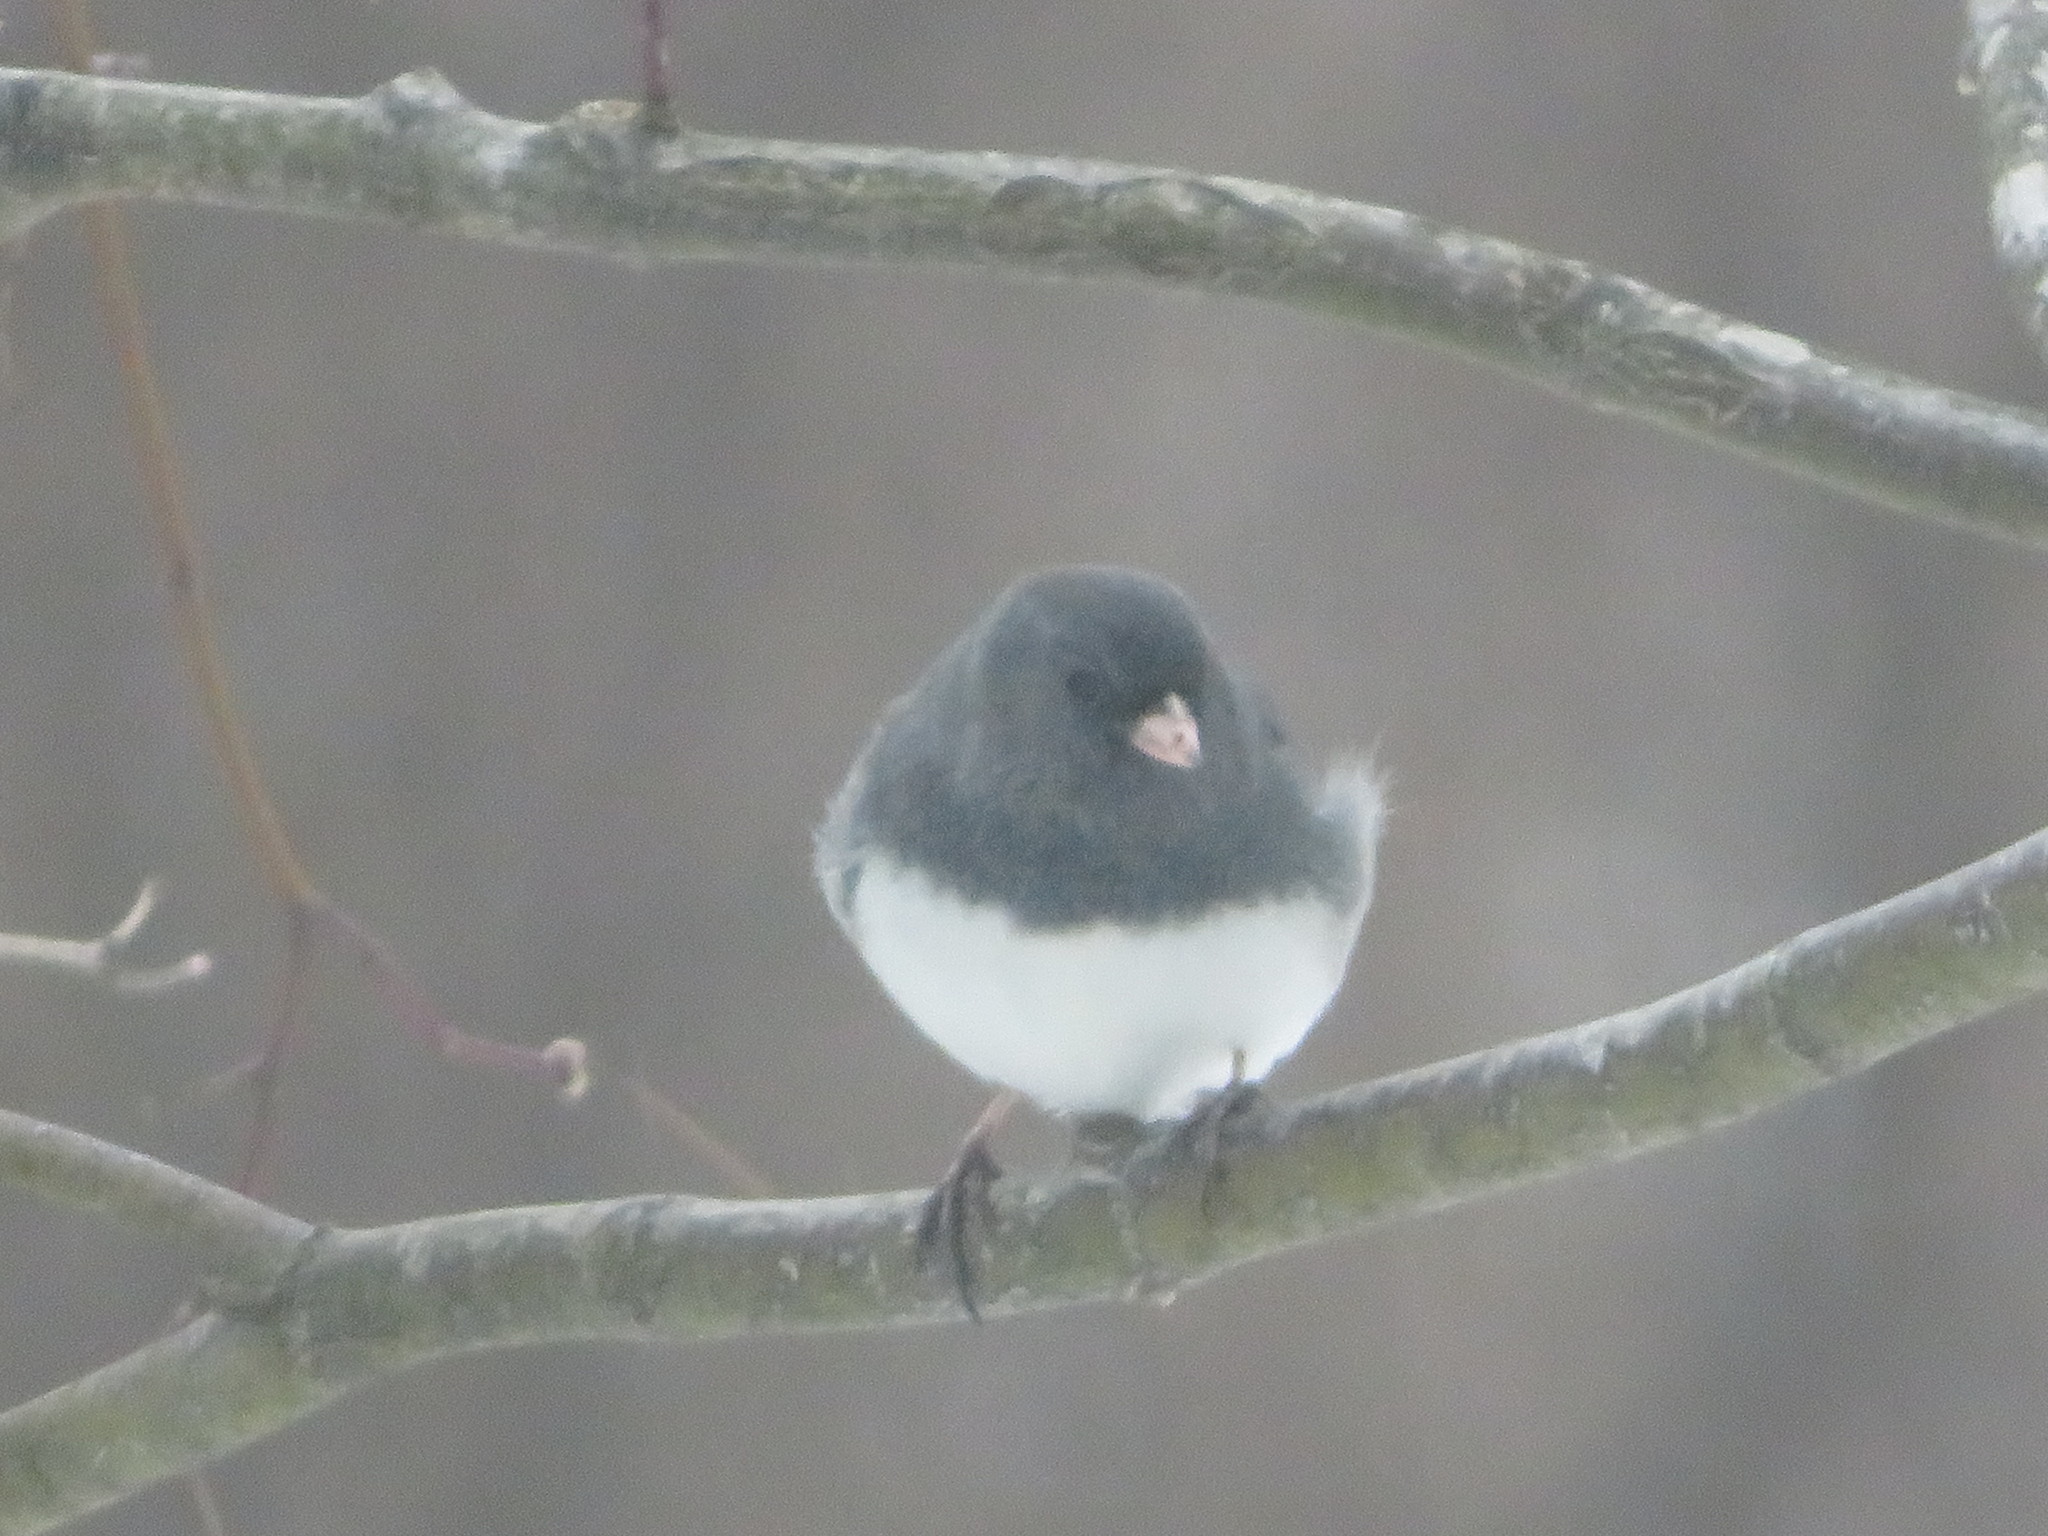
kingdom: Animalia
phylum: Chordata
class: Aves
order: Passeriformes
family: Passerellidae
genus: Junco
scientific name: Junco hyemalis
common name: Dark-eyed junco
